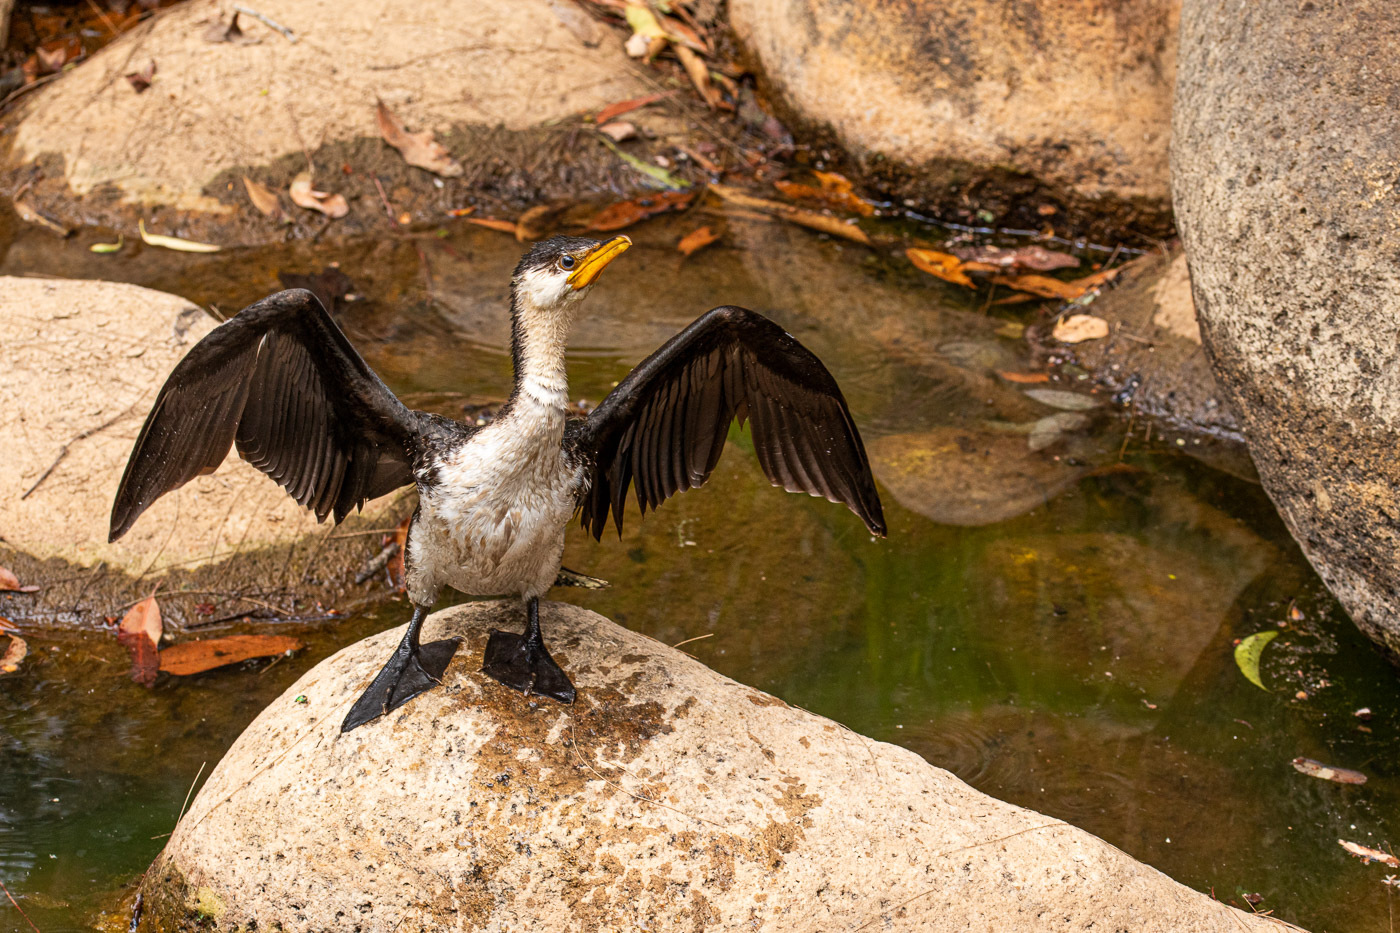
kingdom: Animalia
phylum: Chordata
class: Aves
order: Suliformes
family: Phalacrocoracidae
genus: Microcarbo
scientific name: Microcarbo melanoleucos
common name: Little pied cormorant
